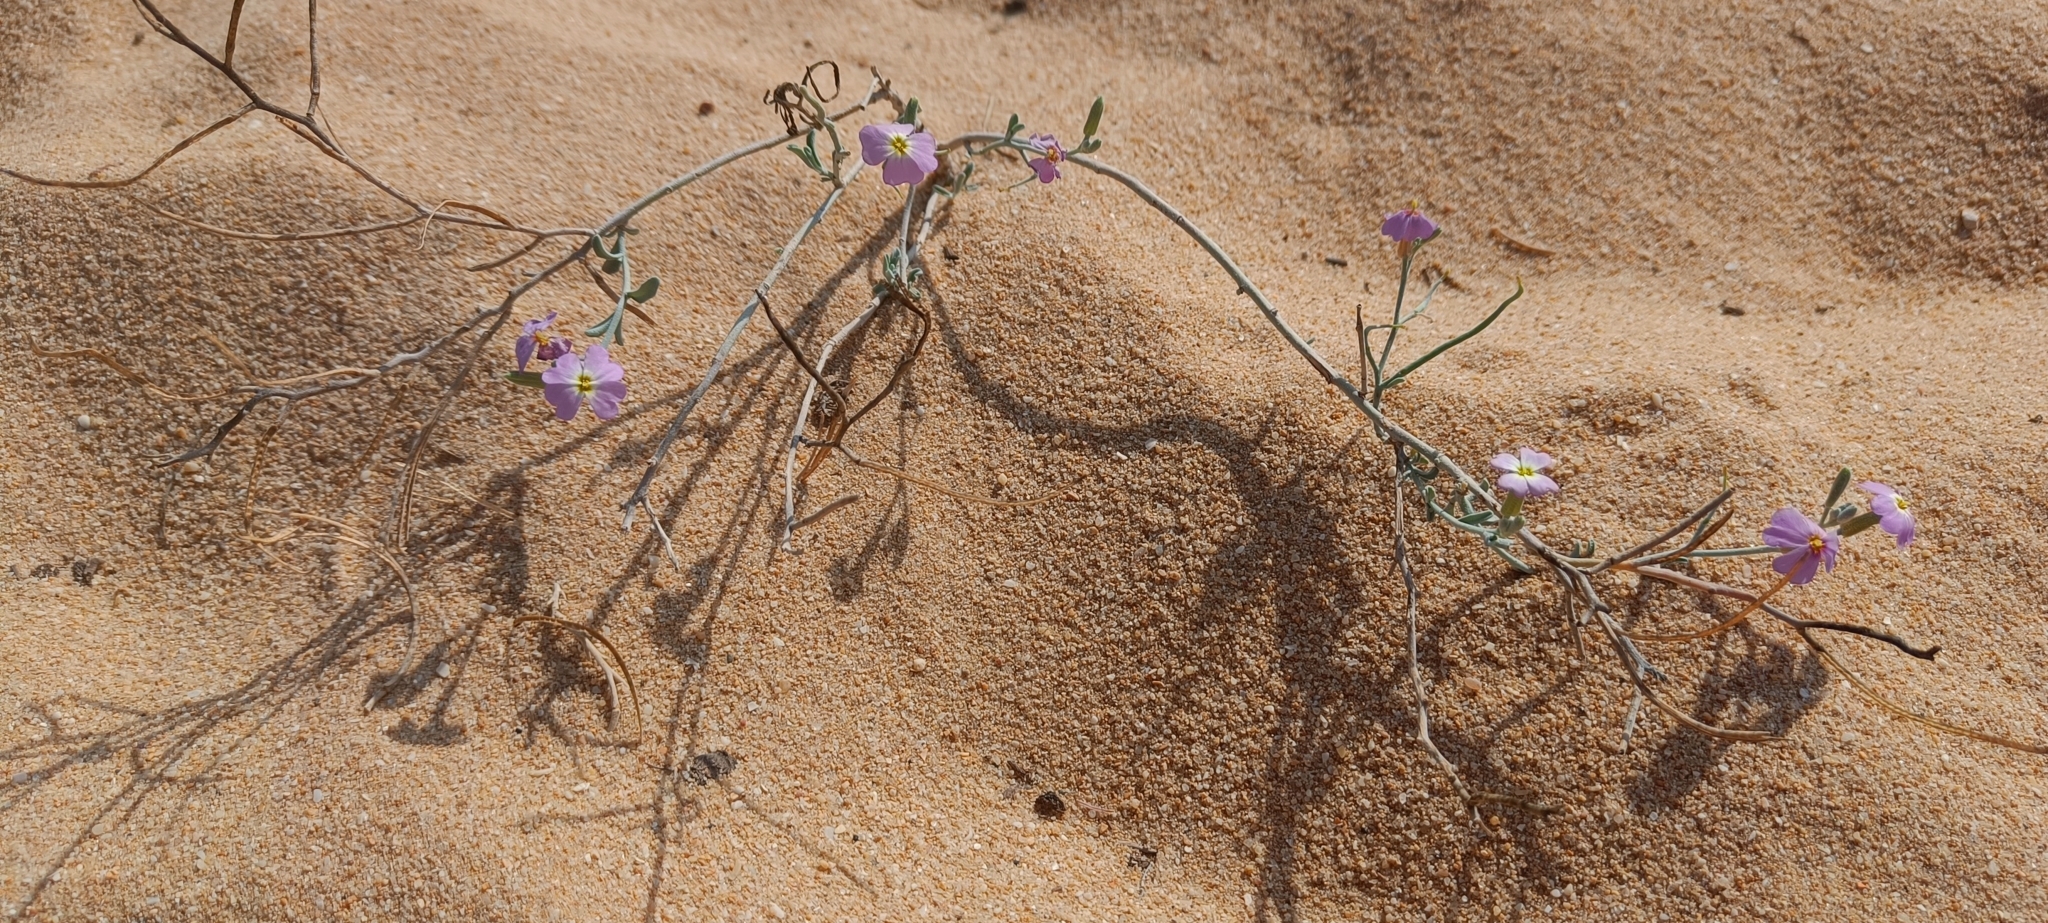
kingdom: Plantae
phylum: Tracheophyta
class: Magnoliopsida
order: Brassicales
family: Brassicaceae
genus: Marcuskochia
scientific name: Marcuskochia littorea
